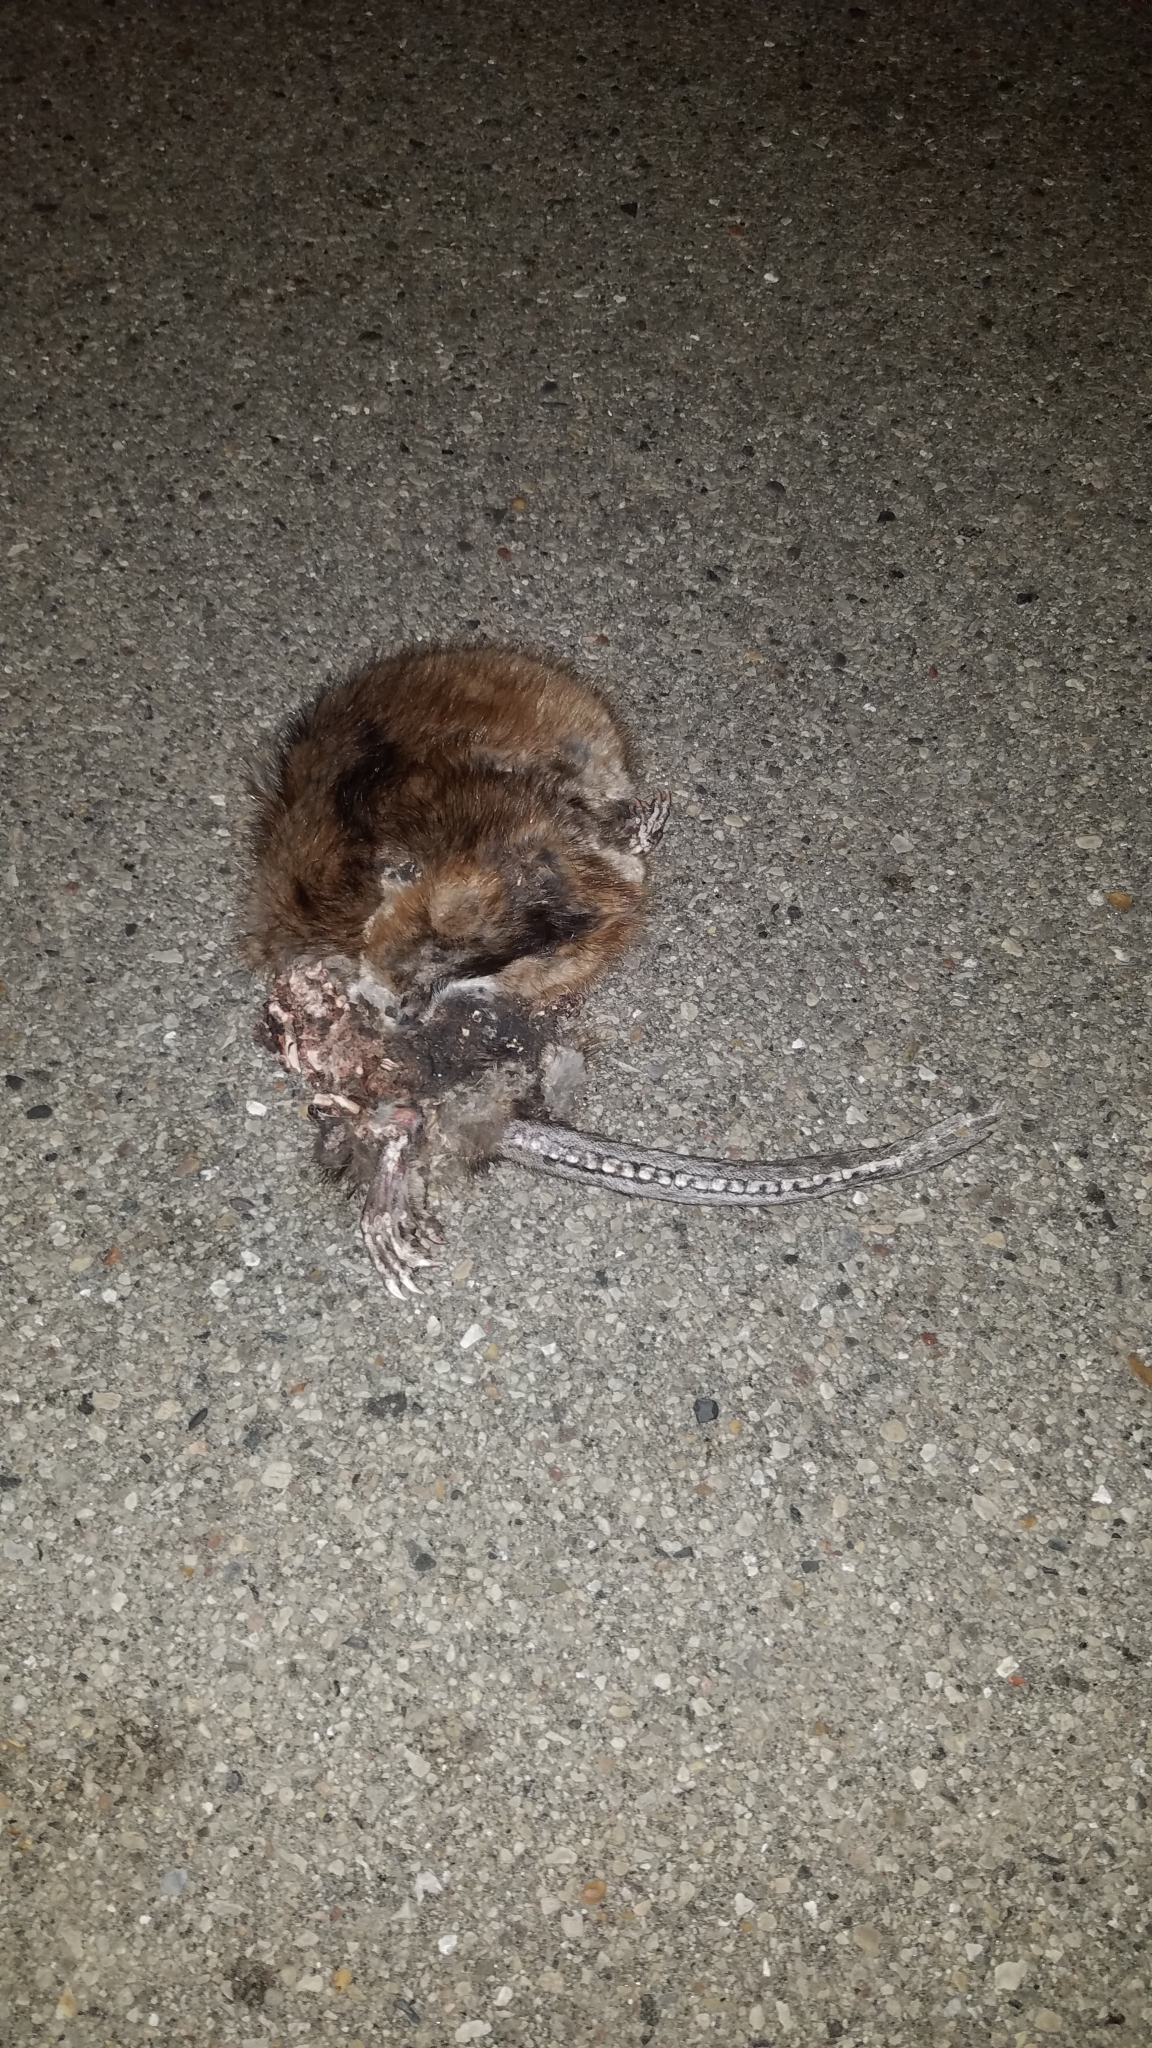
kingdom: Animalia
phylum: Chordata
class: Mammalia
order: Rodentia
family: Cricetidae
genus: Ondatra
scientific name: Ondatra zibethicus
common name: Muskrat
